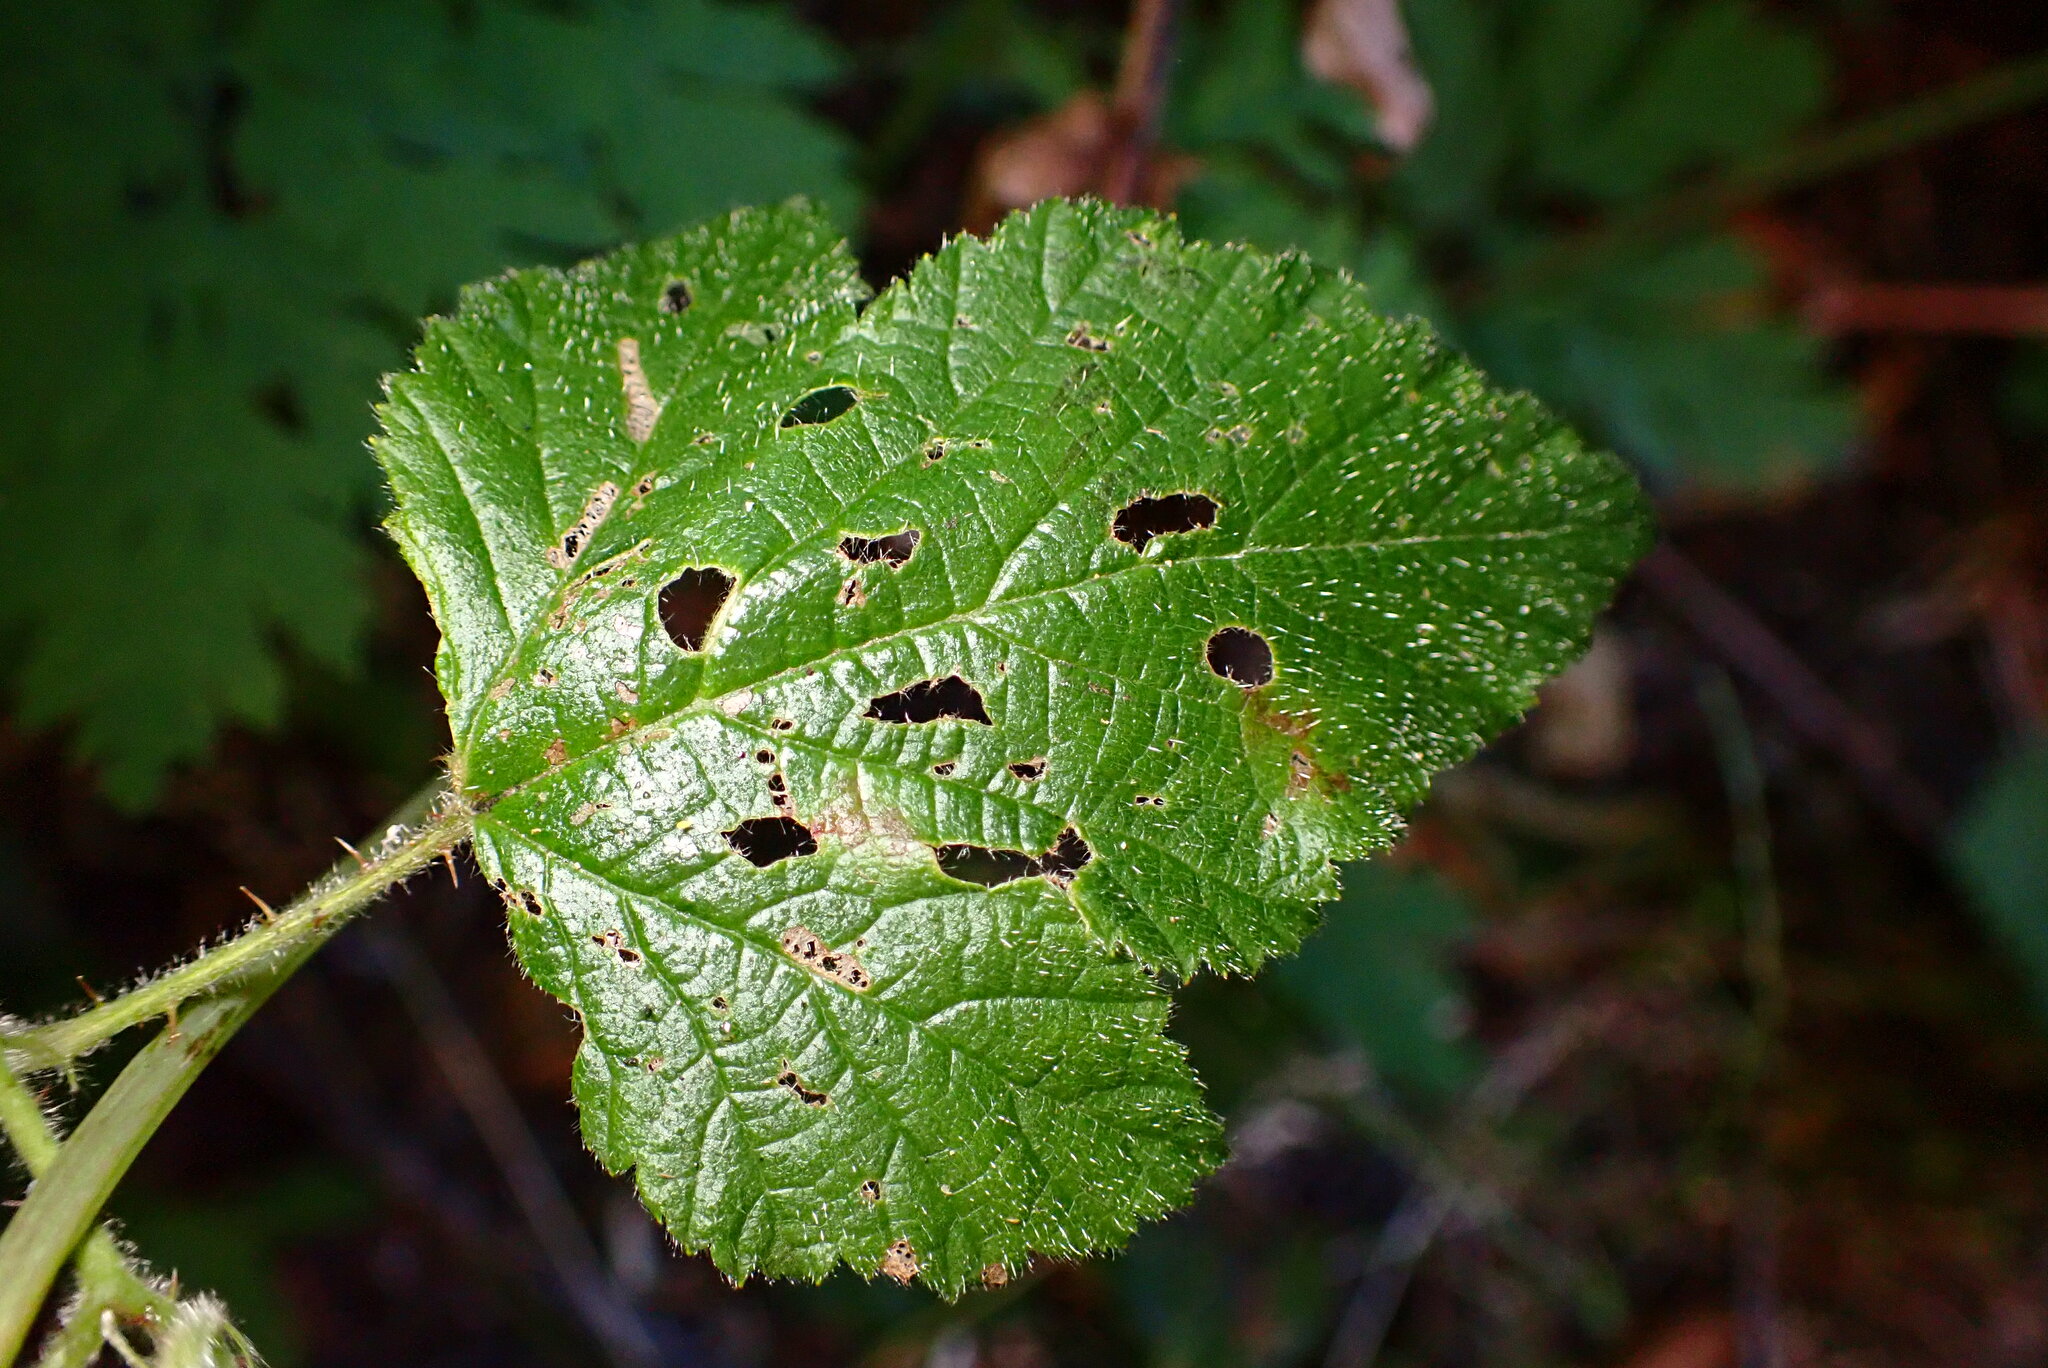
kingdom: Plantae
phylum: Tracheophyta
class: Magnoliopsida
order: Ranunculales
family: Papaveraceae
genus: Dicentra
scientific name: Dicentra formosa
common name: Bleeding-heart
